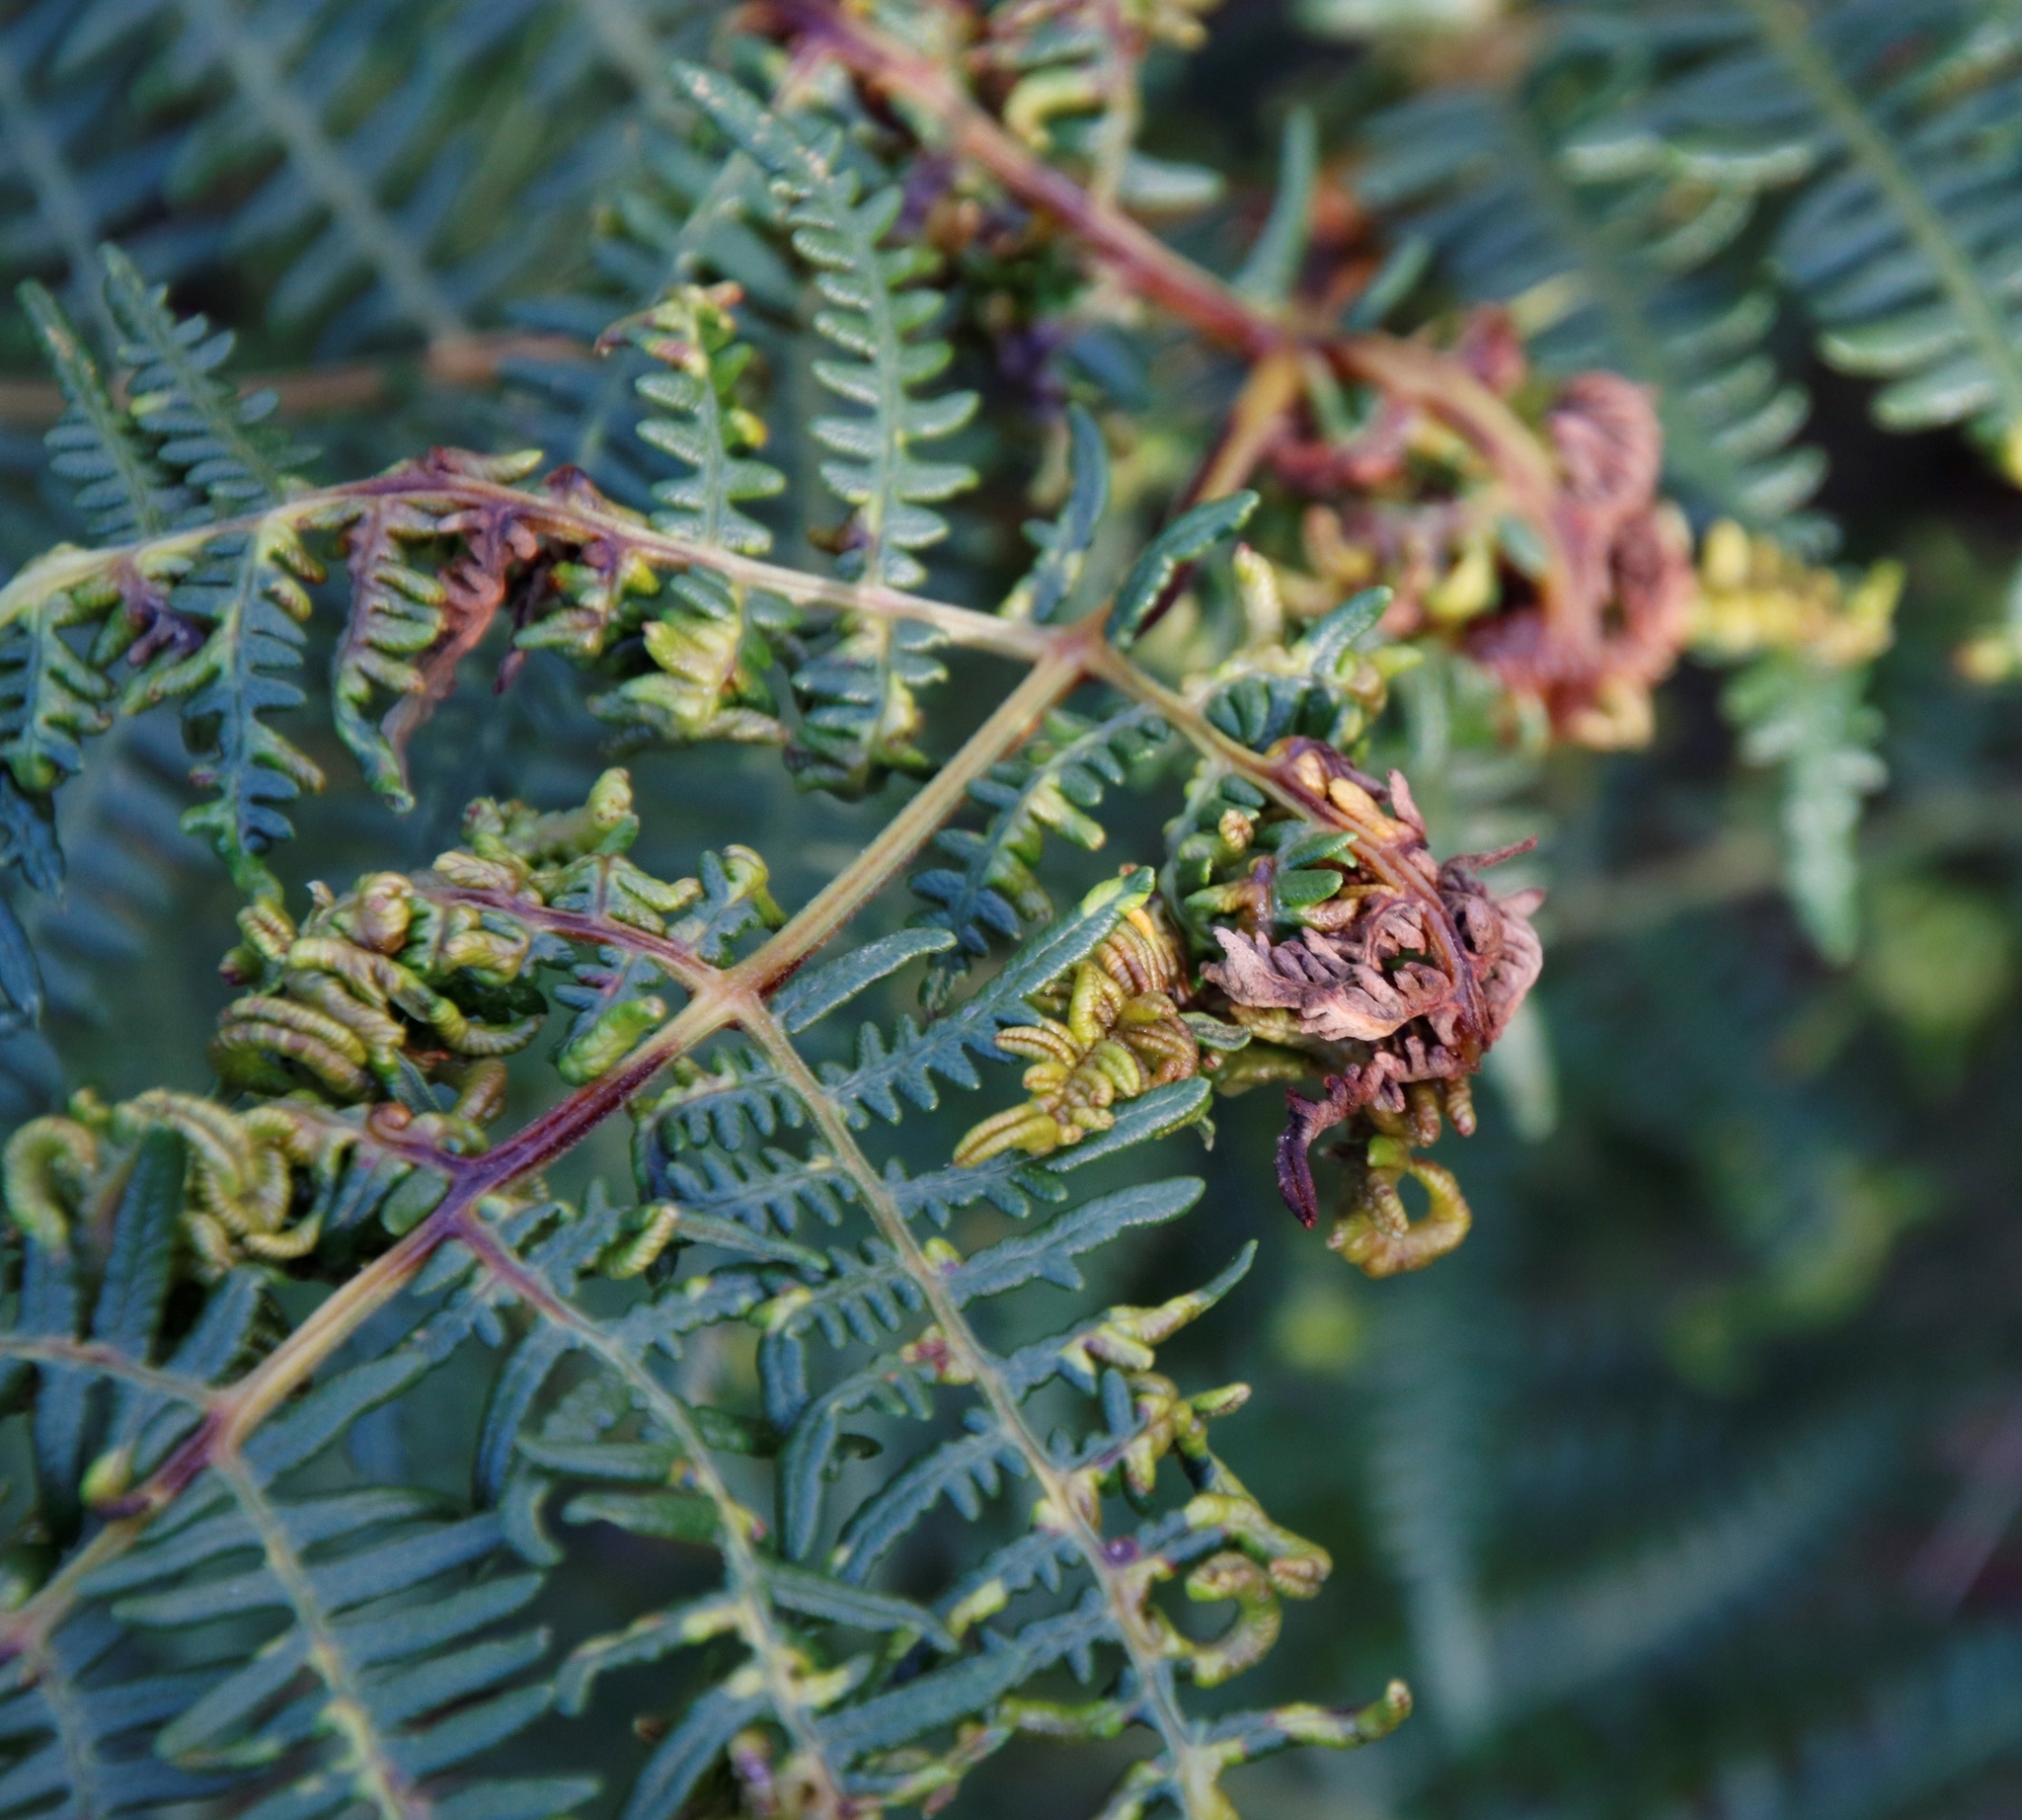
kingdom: Animalia
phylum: Arthropoda
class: Arachnida
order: Trombidiformes
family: Eriophyidae
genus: Eriophyes
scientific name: Eriophyes
